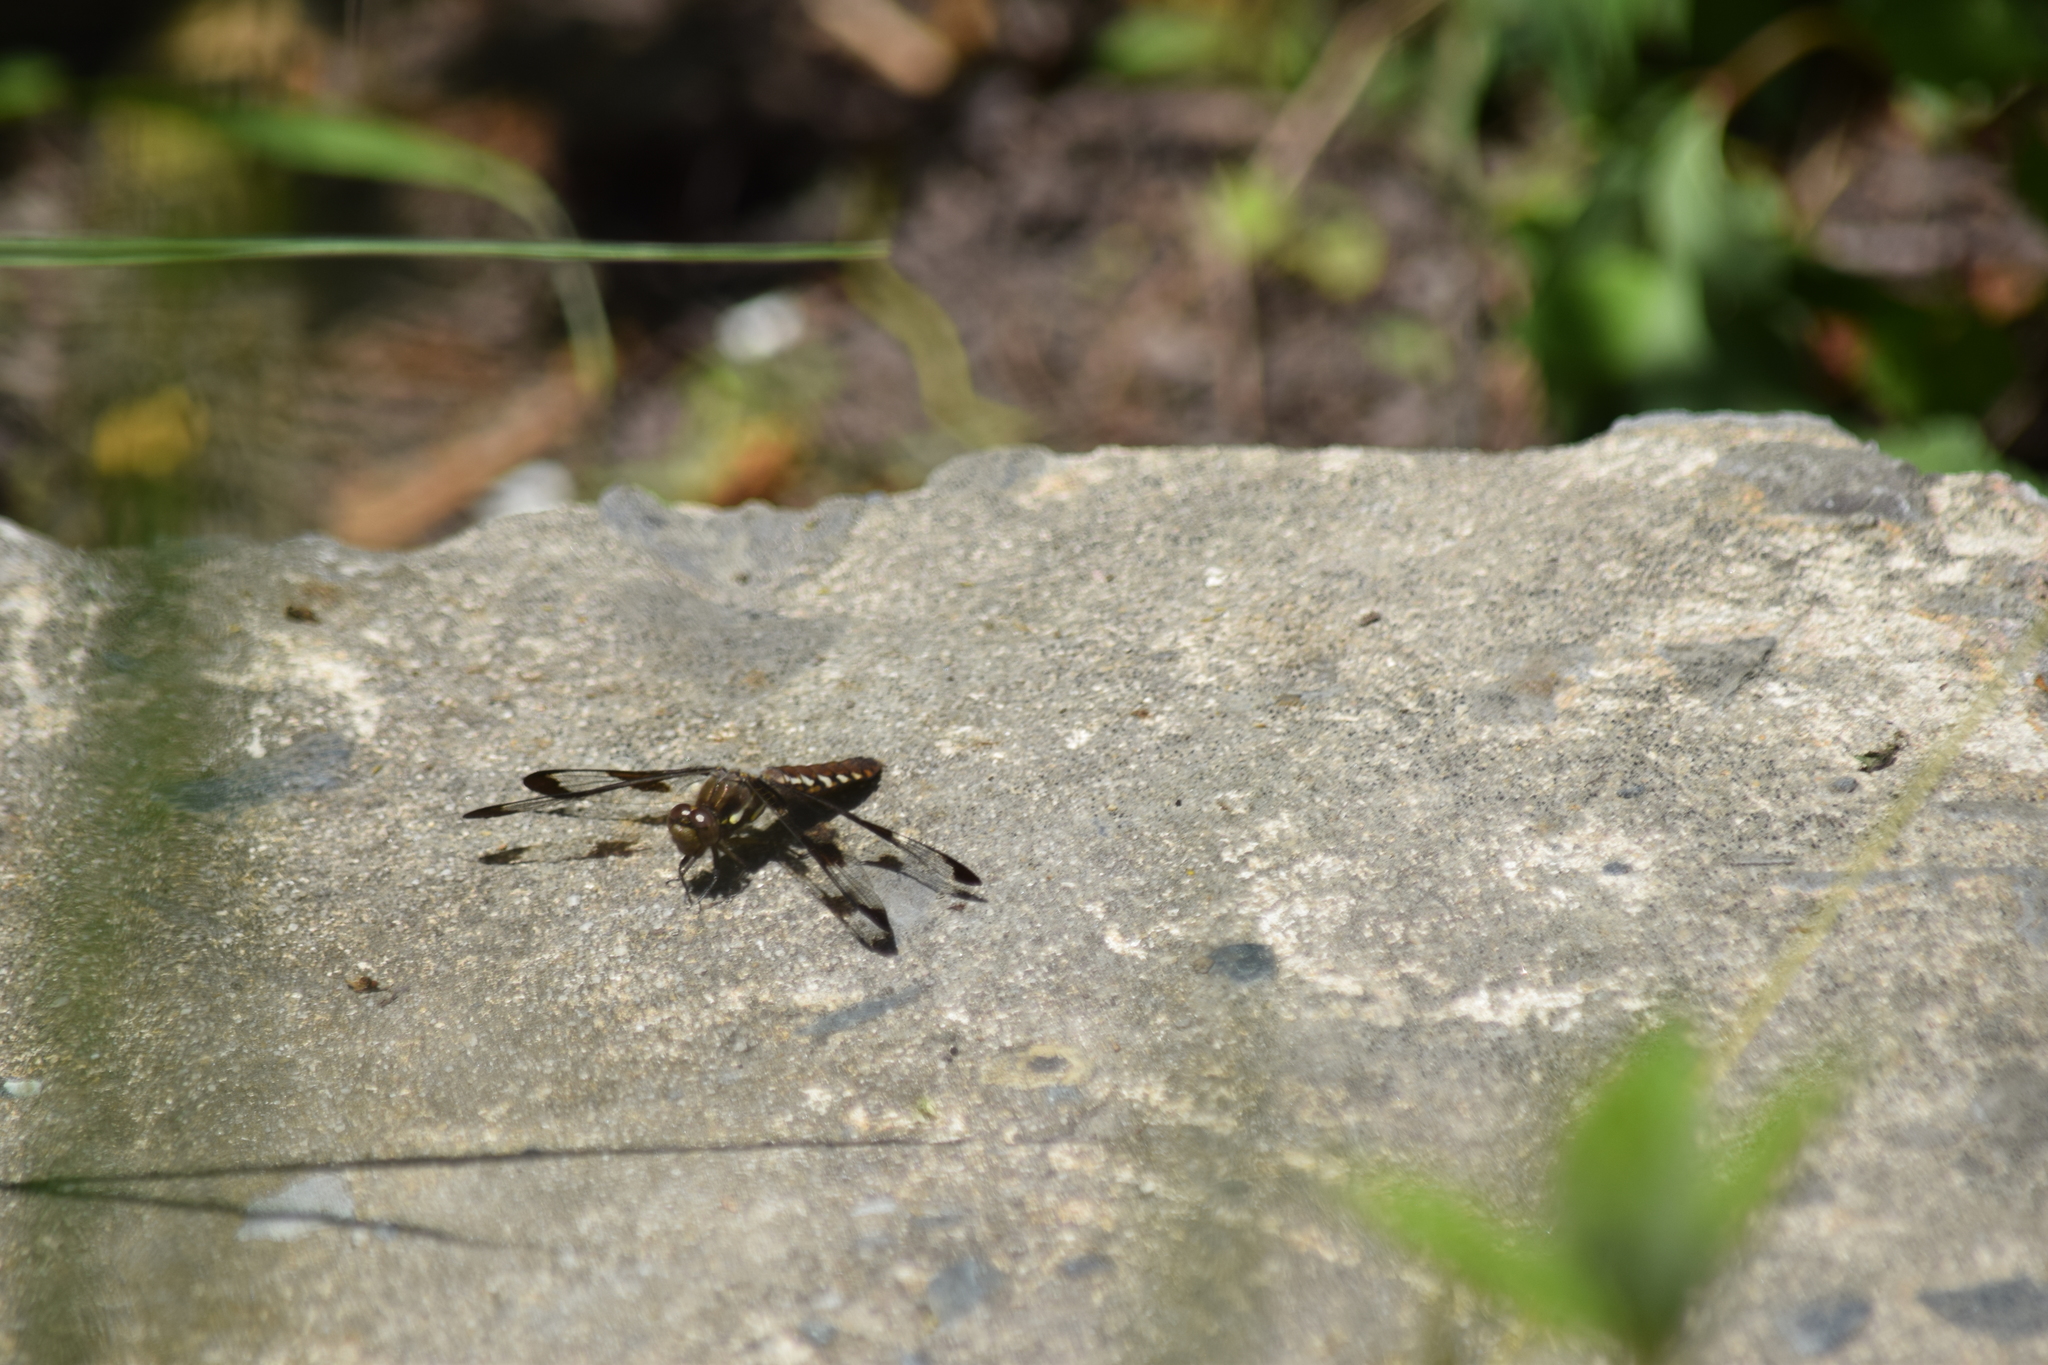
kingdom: Animalia
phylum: Arthropoda
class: Insecta
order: Odonata
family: Libellulidae
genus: Plathemis
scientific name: Plathemis lydia
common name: Common whitetail
